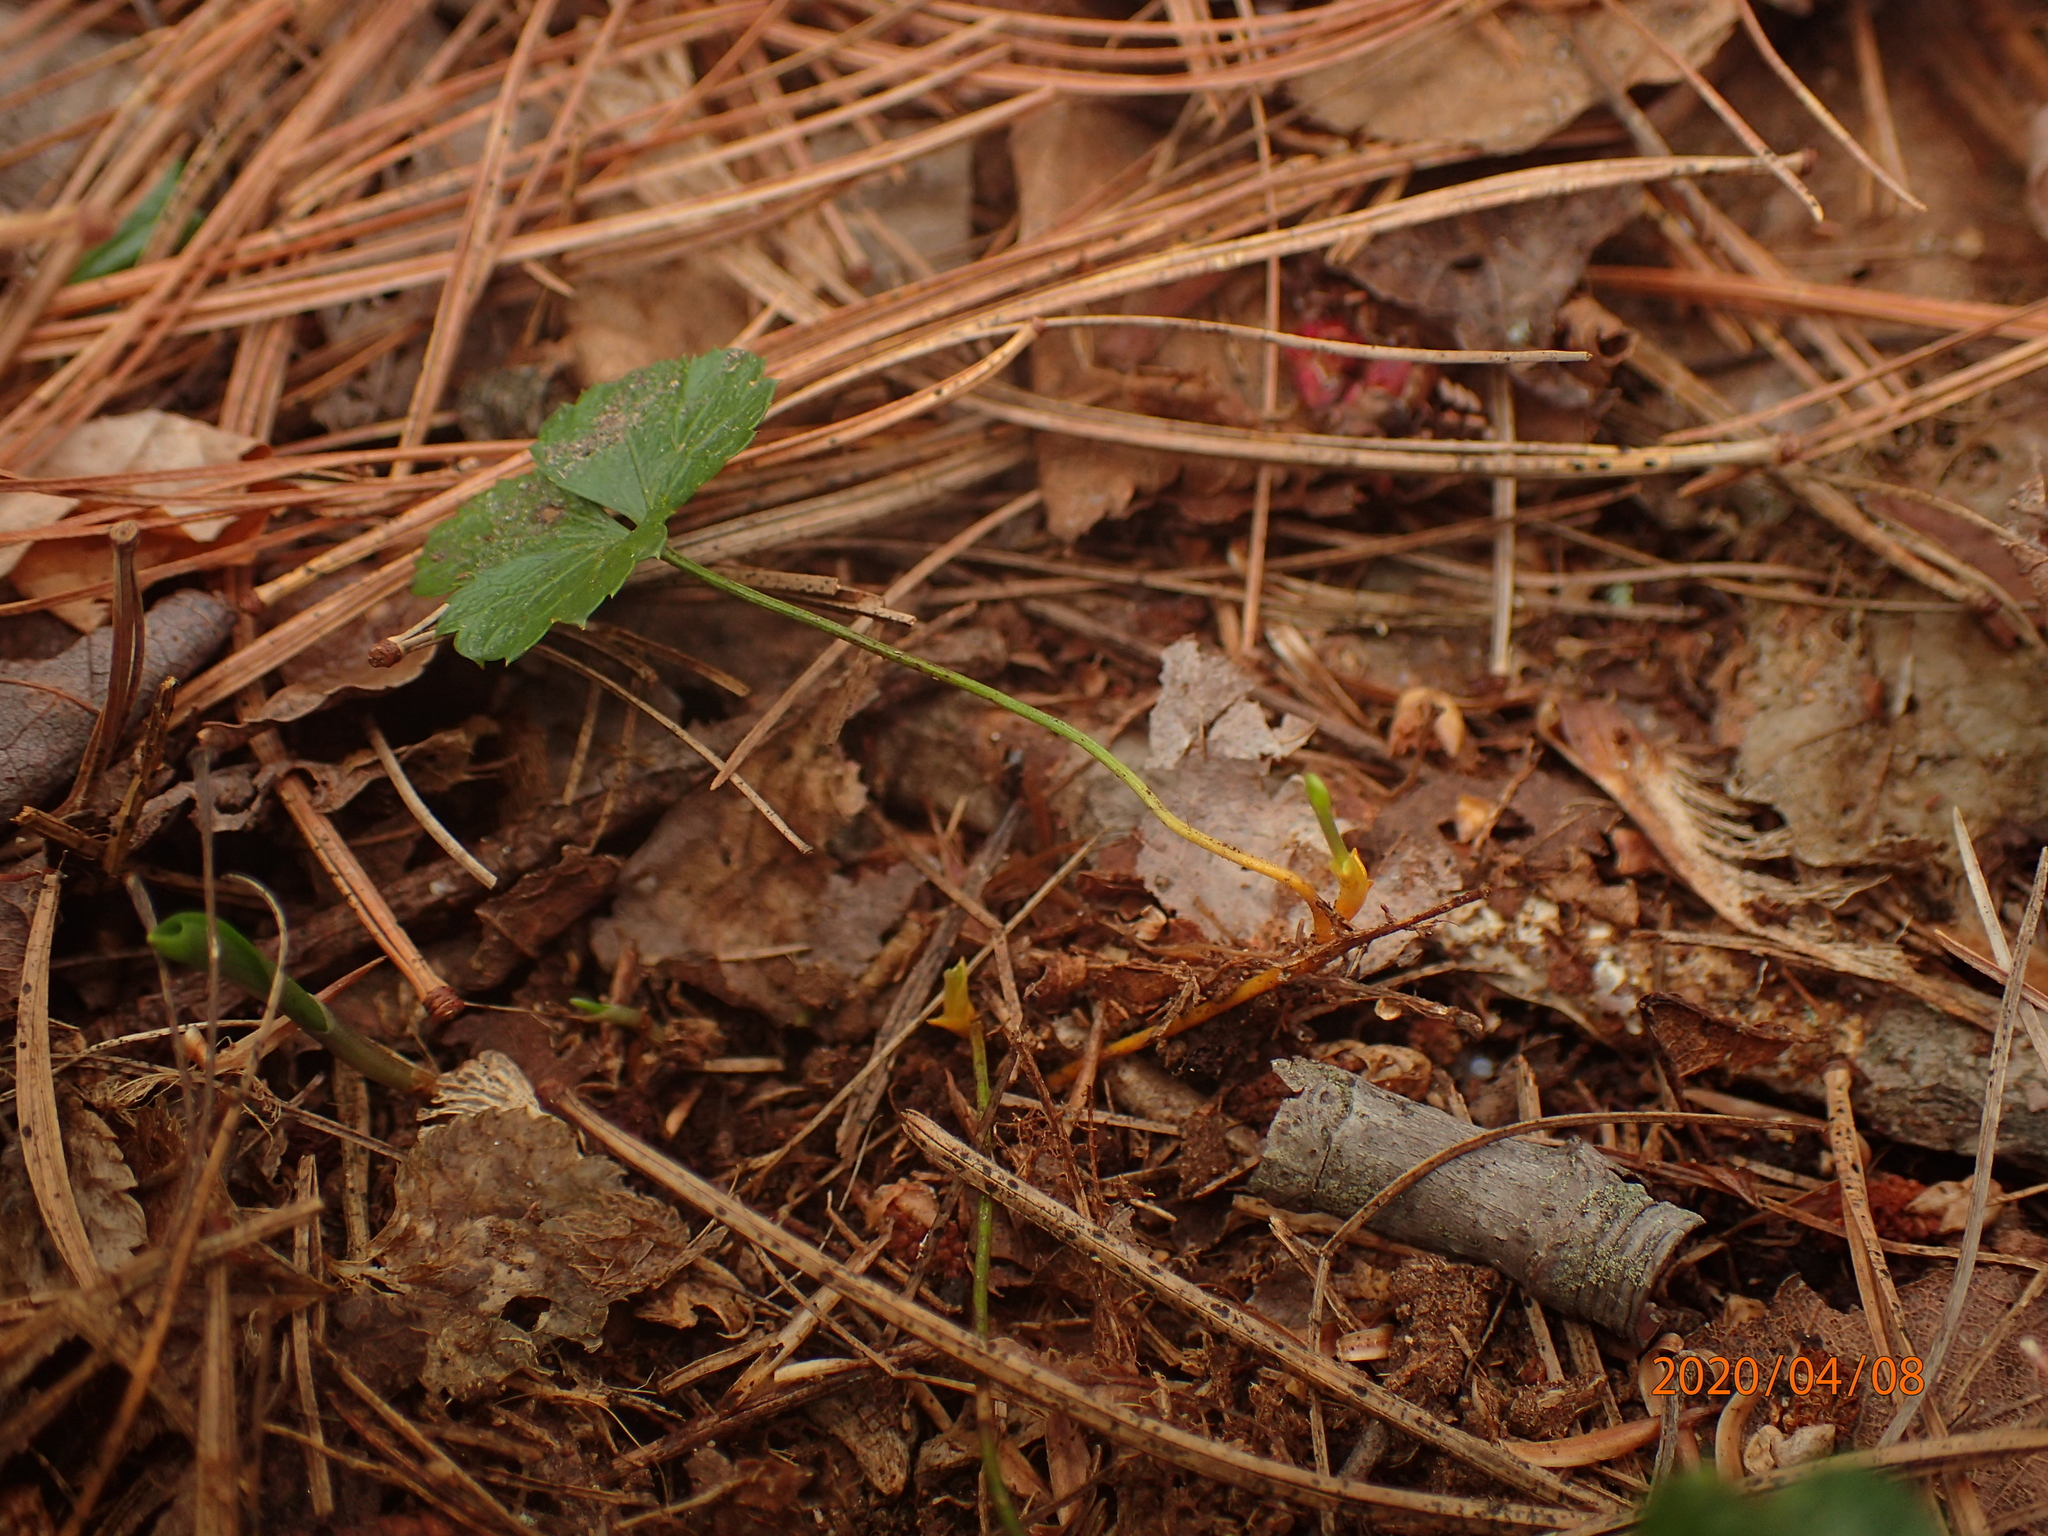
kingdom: Plantae
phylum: Tracheophyta
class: Magnoliopsida
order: Ranunculales
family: Ranunculaceae
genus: Coptis
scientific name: Coptis trifolia
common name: Canker-root
